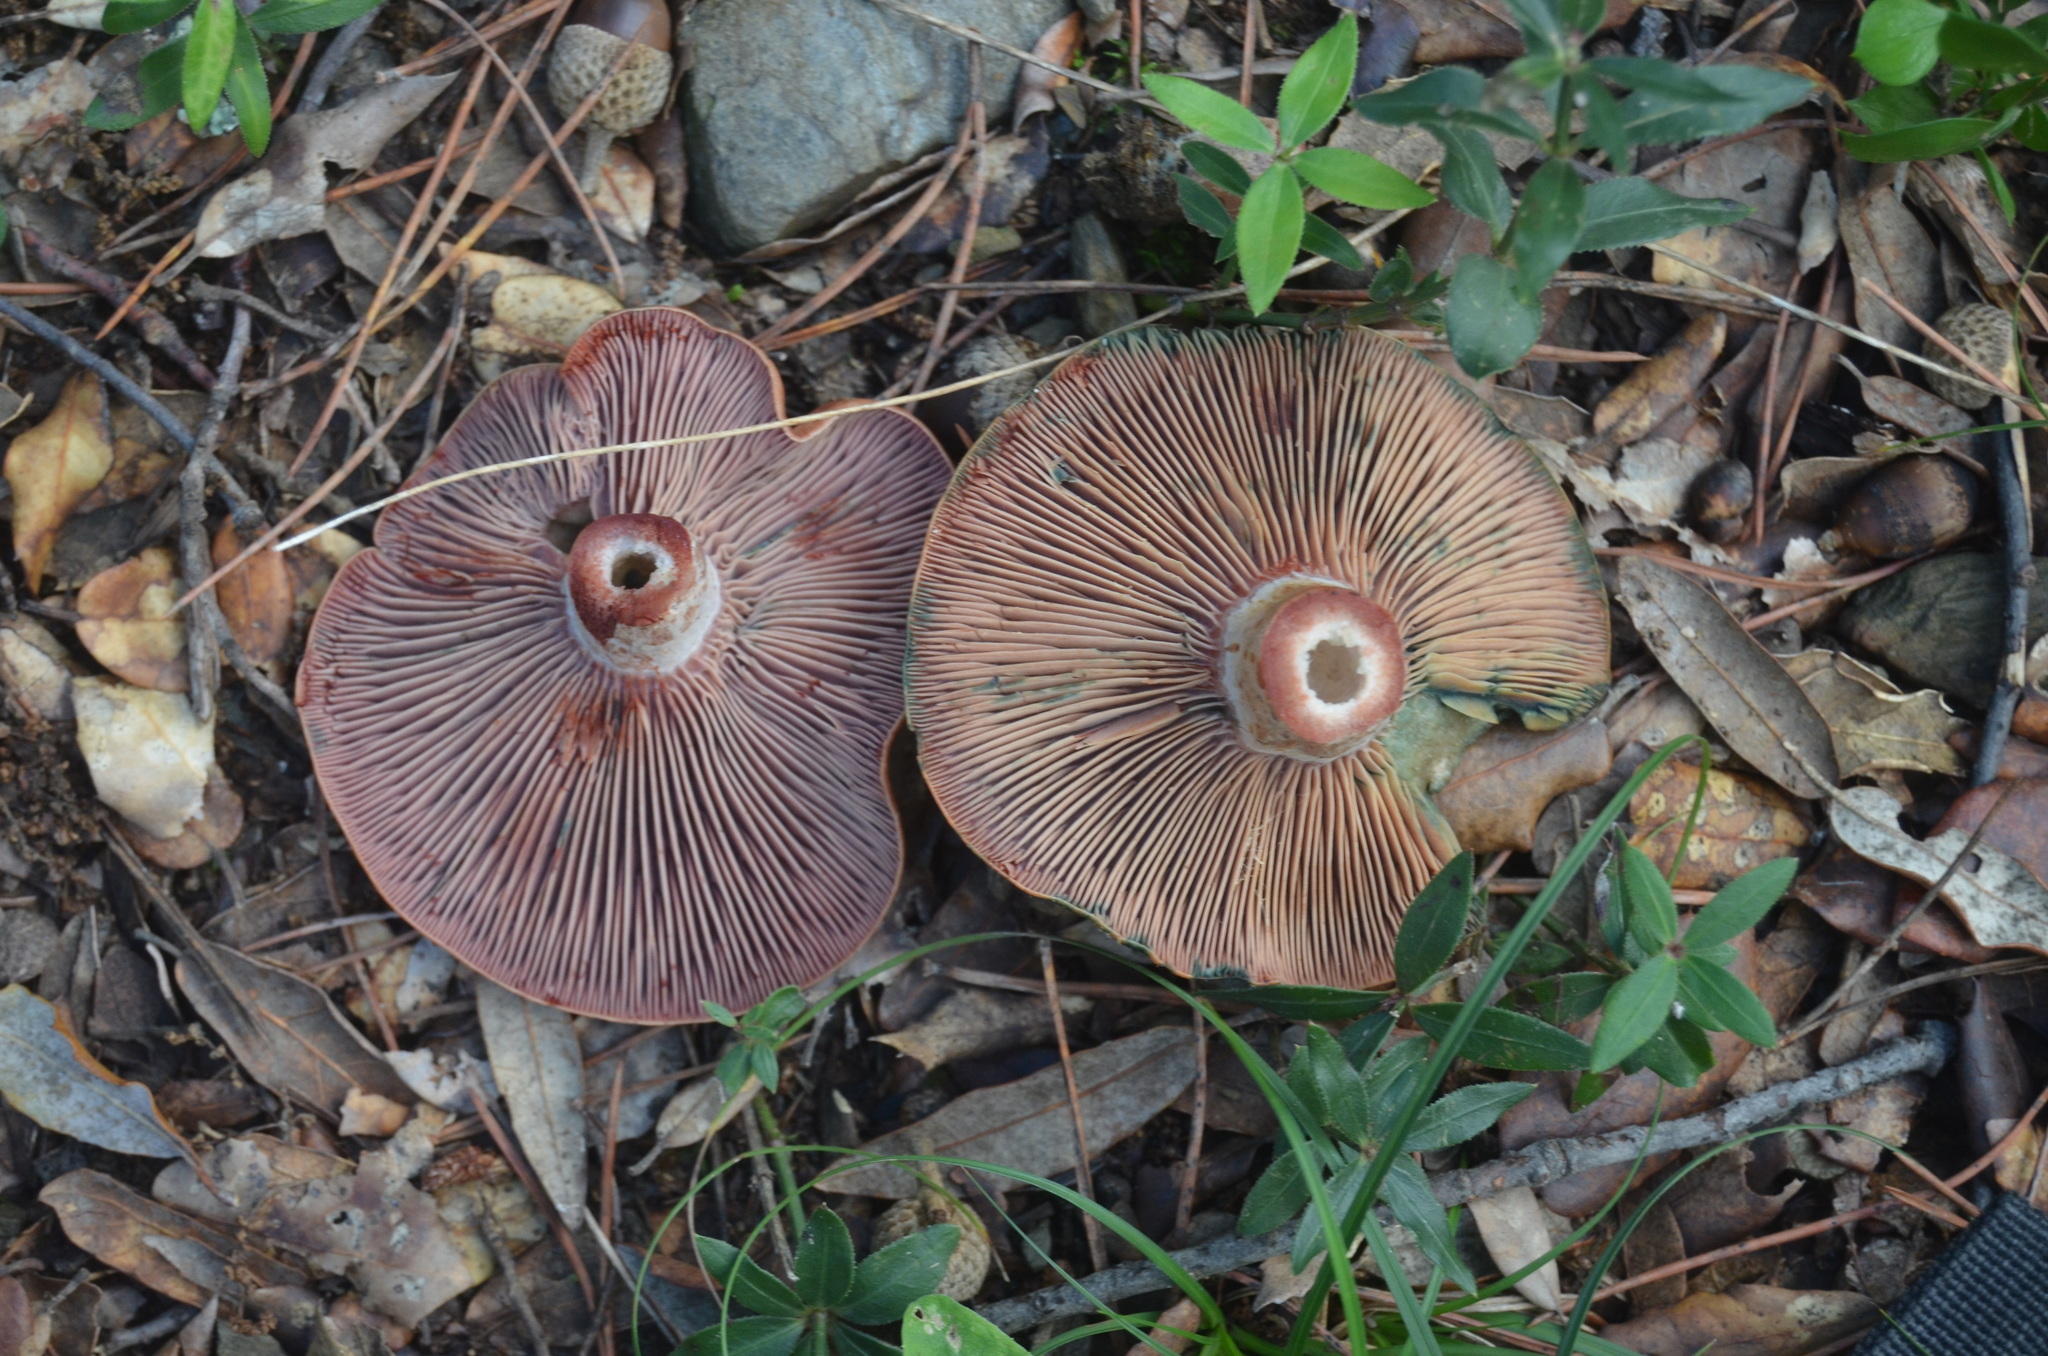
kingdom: Fungi
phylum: Basidiomycota
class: Agaricomycetes
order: Russulales
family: Russulaceae
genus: Lactarius
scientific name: Lactarius sanguifluus
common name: Bloody milkcap
